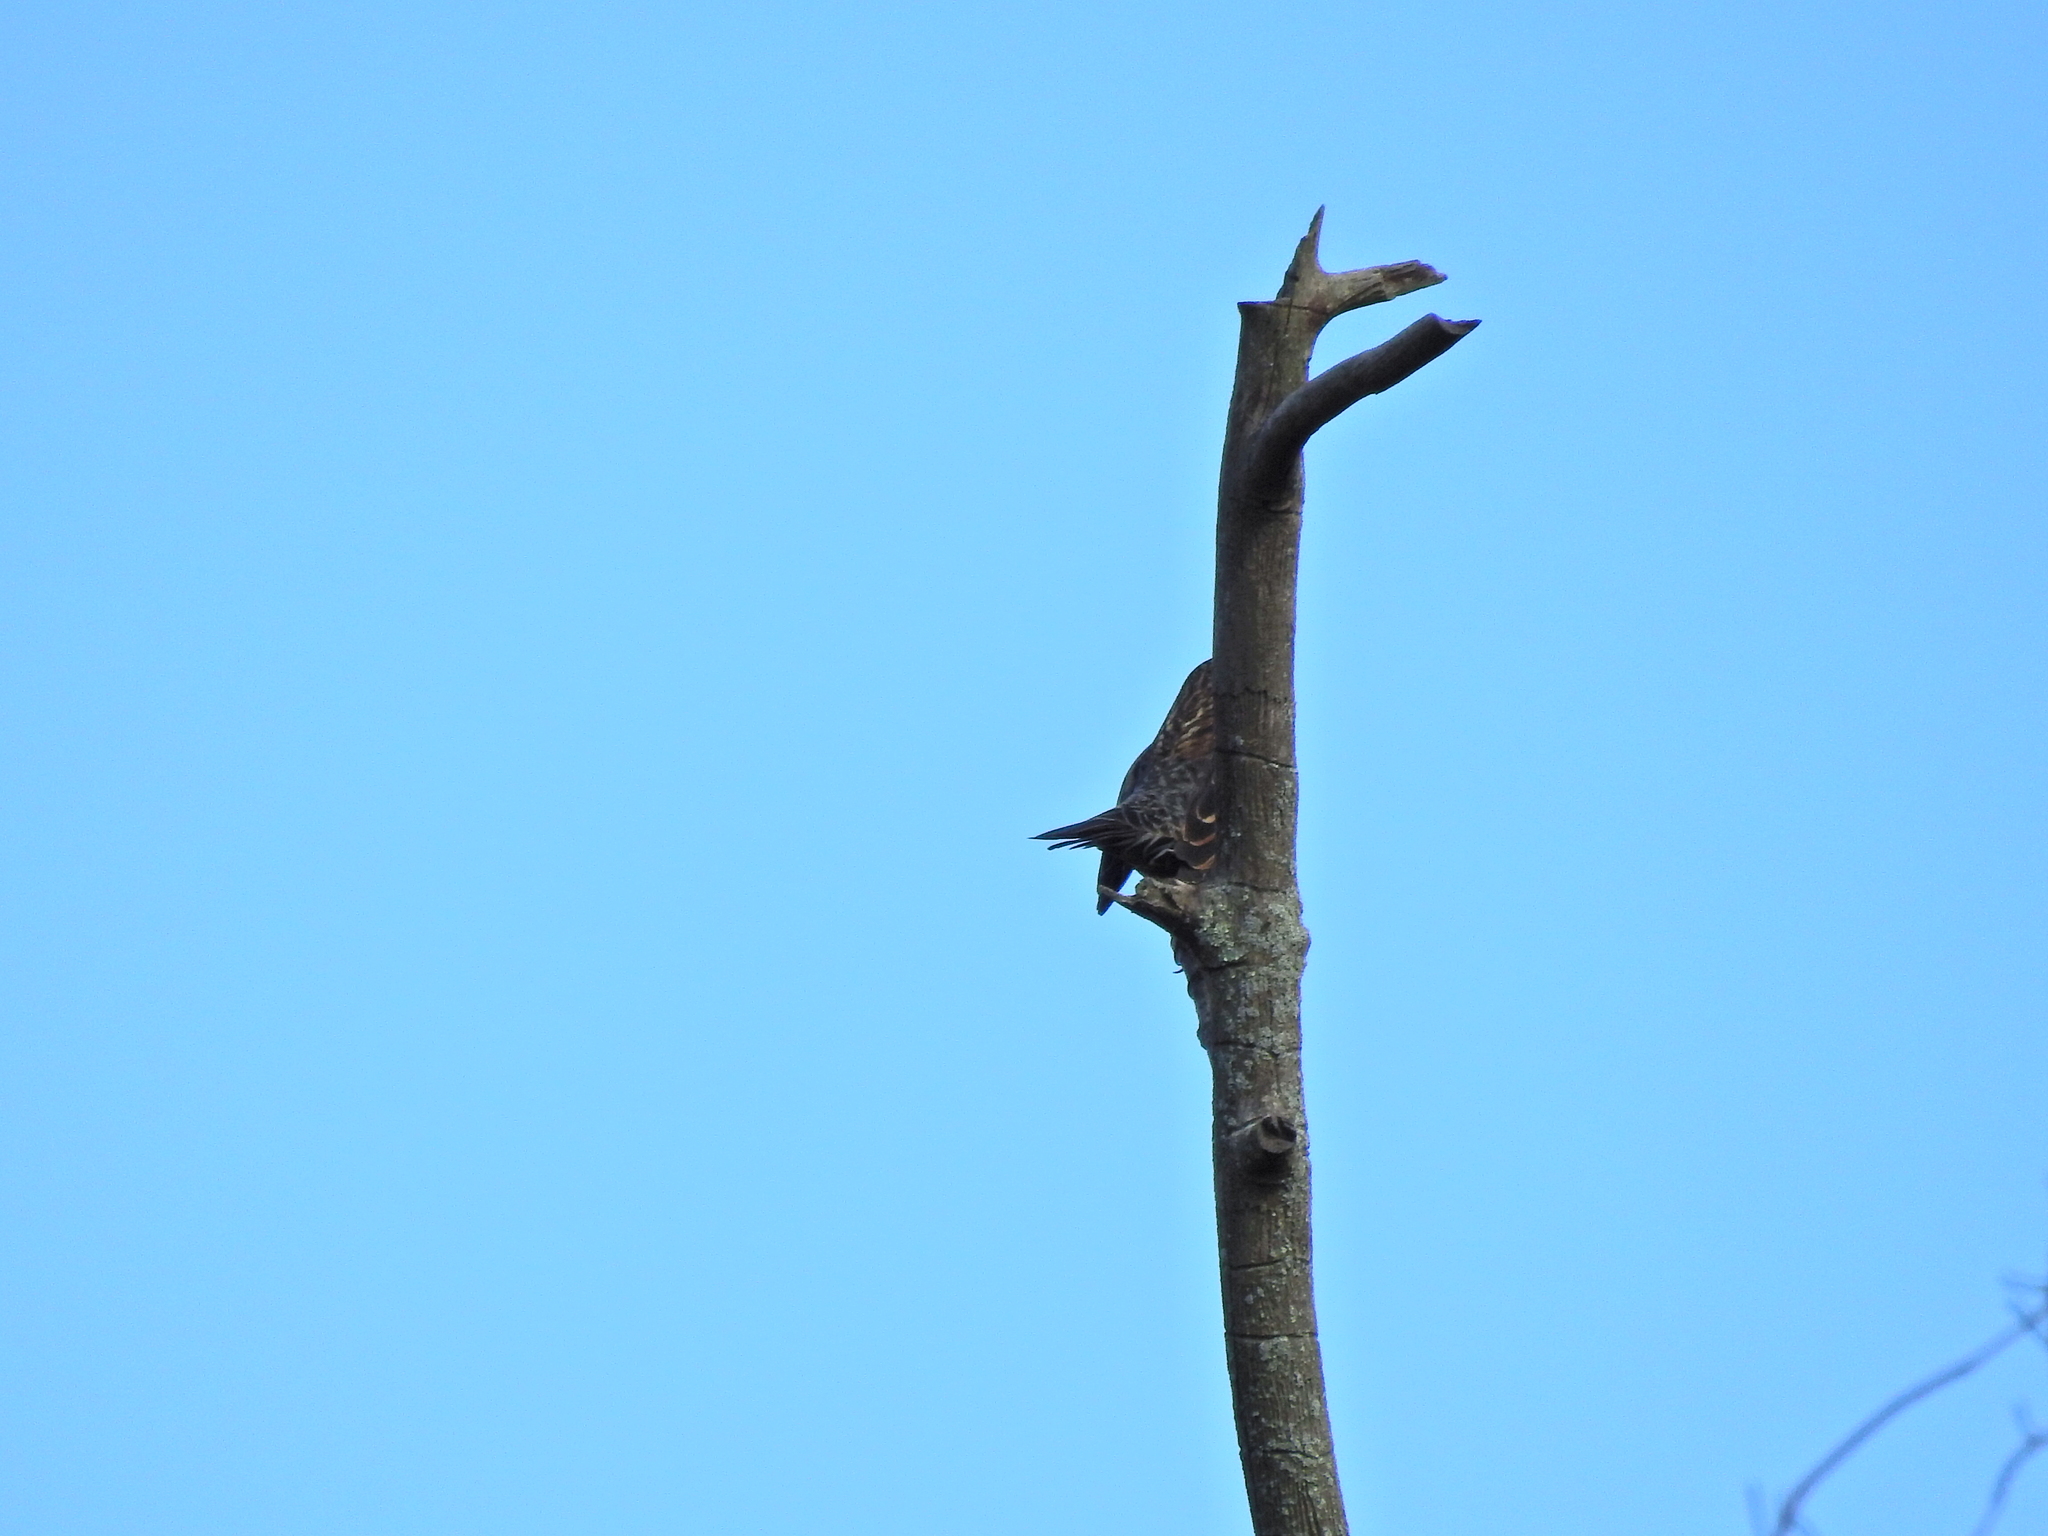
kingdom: Animalia
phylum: Chordata
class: Aves
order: Passeriformes
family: Icteridae
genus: Agelaius
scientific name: Agelaius phoeniceus
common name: Red-winged blackbird
